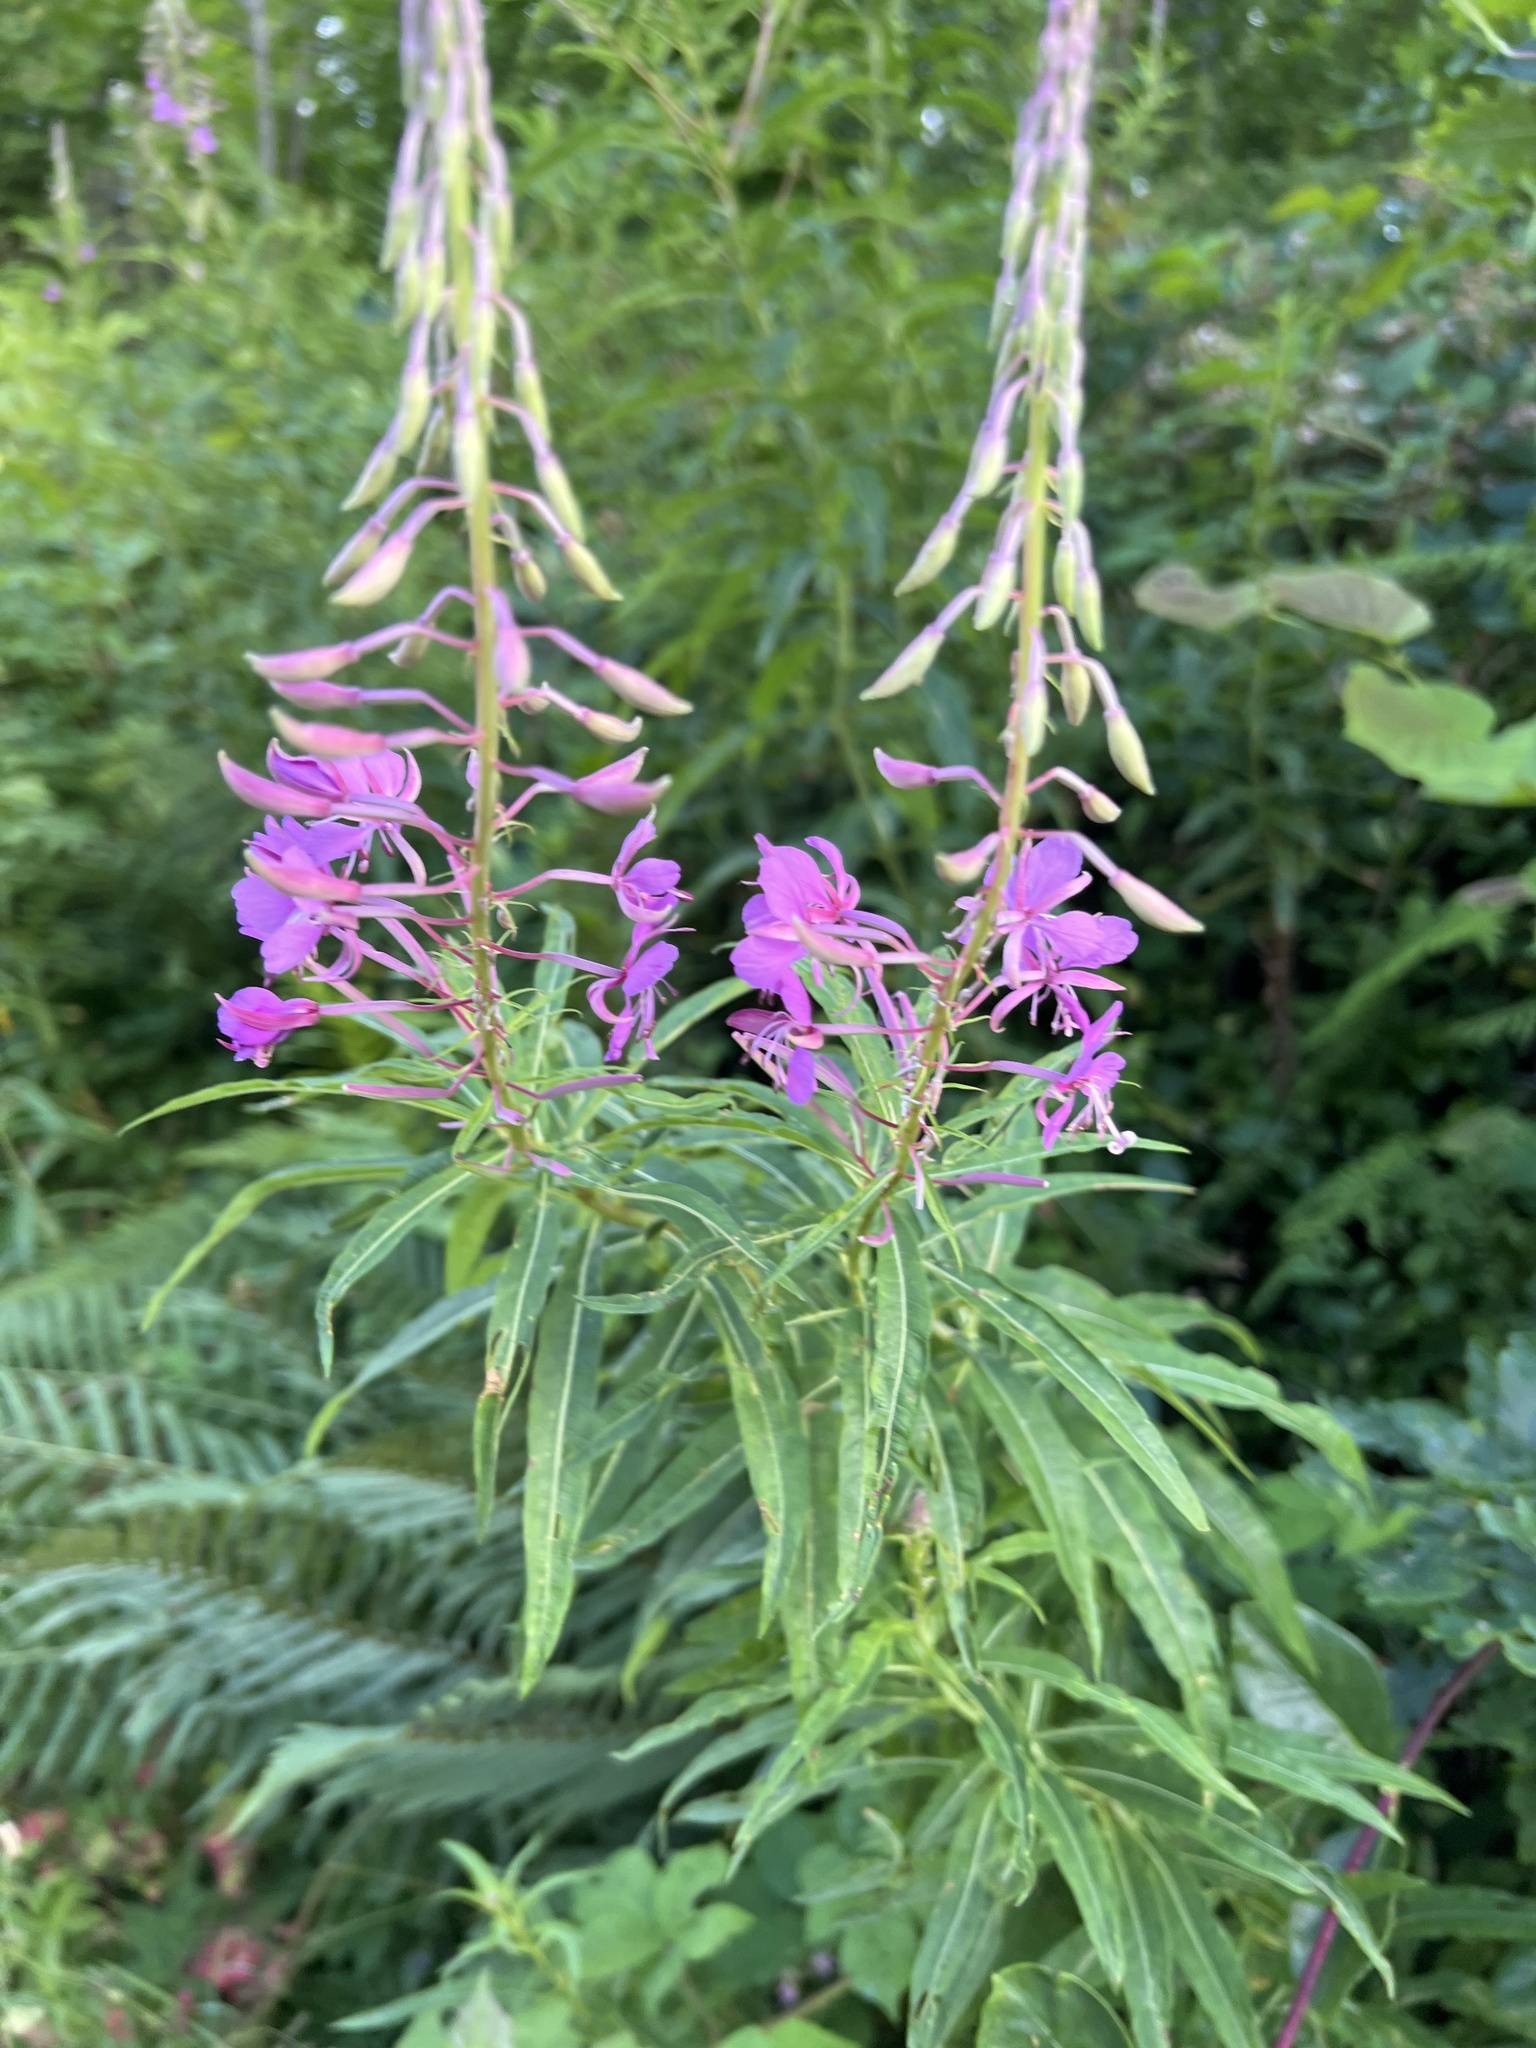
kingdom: Plantae
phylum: Tracheophyta
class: Magnoliopsida
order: Myrtales
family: Onagraceae
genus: Chamaenerion
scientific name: Chamaenerion angustifolium
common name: Fireweed
